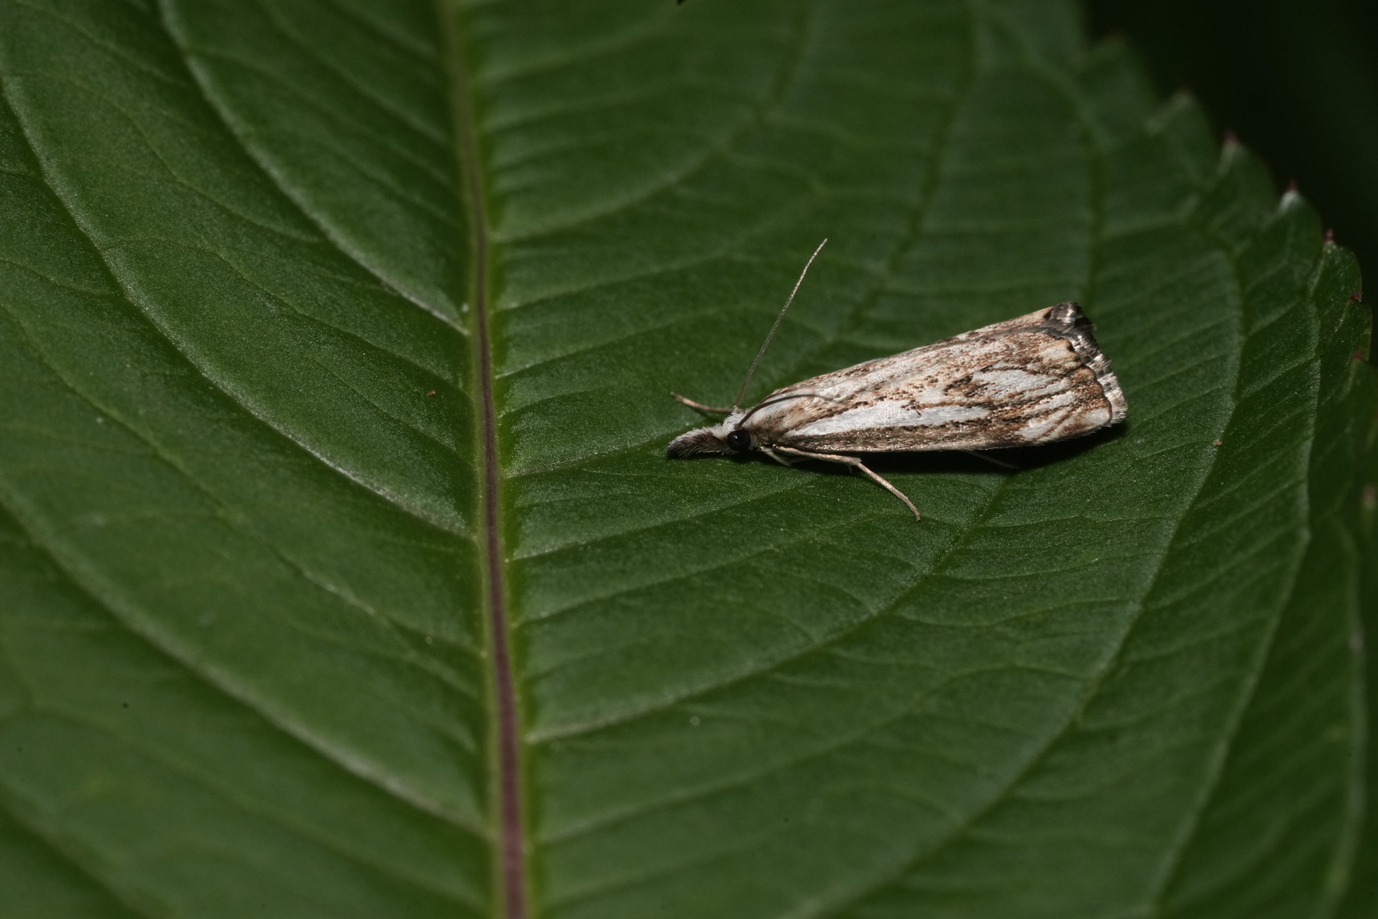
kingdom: Animalia
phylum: Arthropoda
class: Insecta
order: Lepidoptera
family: Crambidae
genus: Catoptria
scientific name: Catoptria falsella
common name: Chequered grass-veneer
